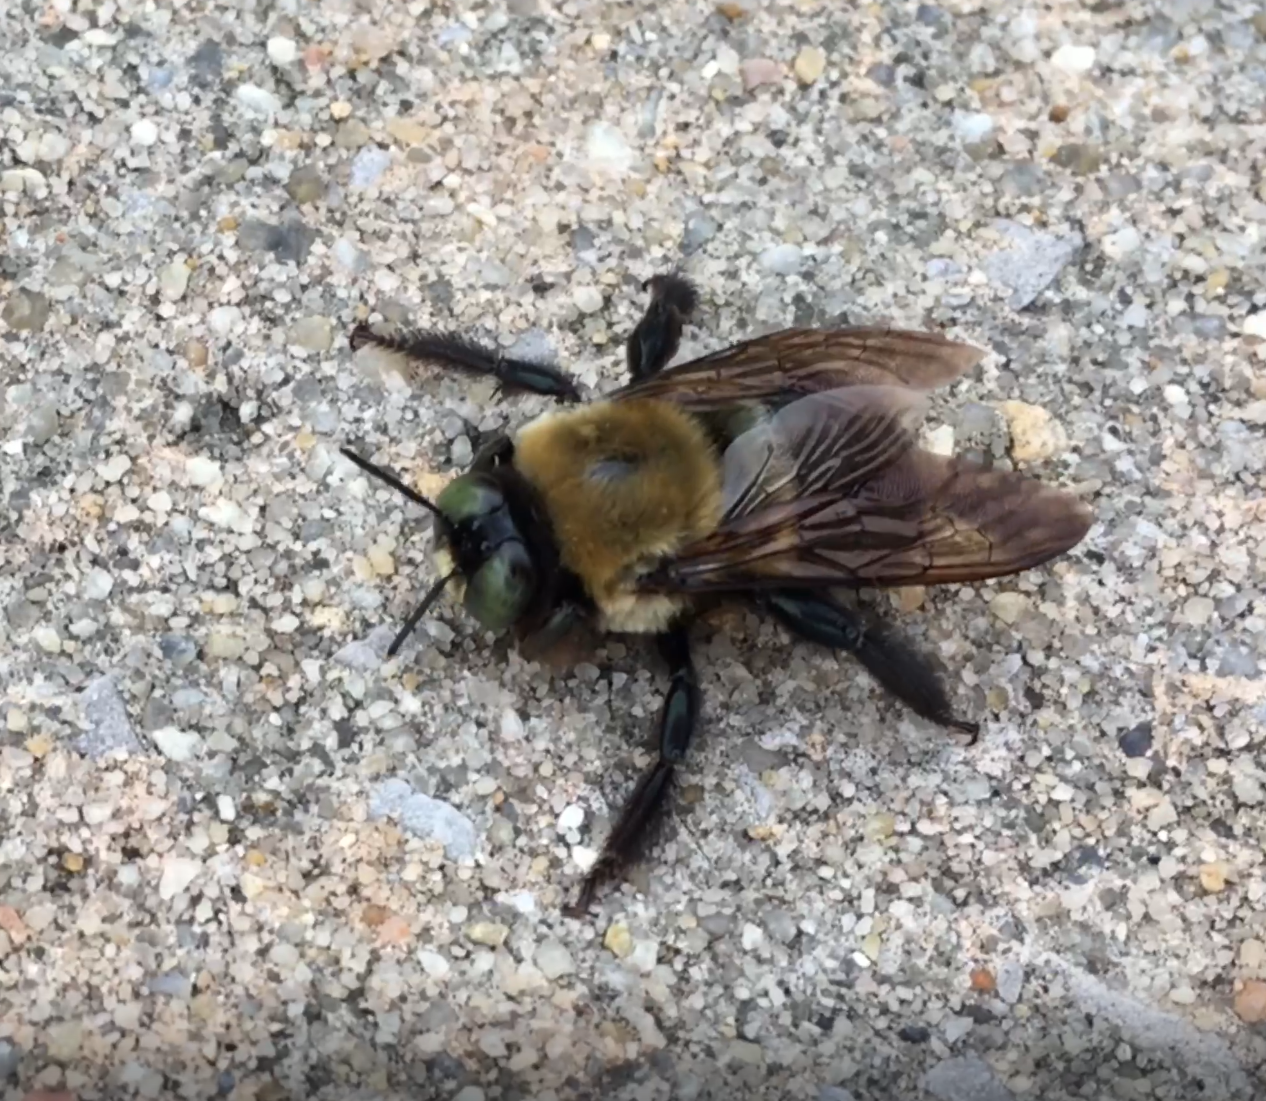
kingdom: Animalia
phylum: Arthropoda
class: Insecta
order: Hymenoptera
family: Apidae
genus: Xylocopa
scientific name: Xylocopa virginica
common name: Carpenter bee
